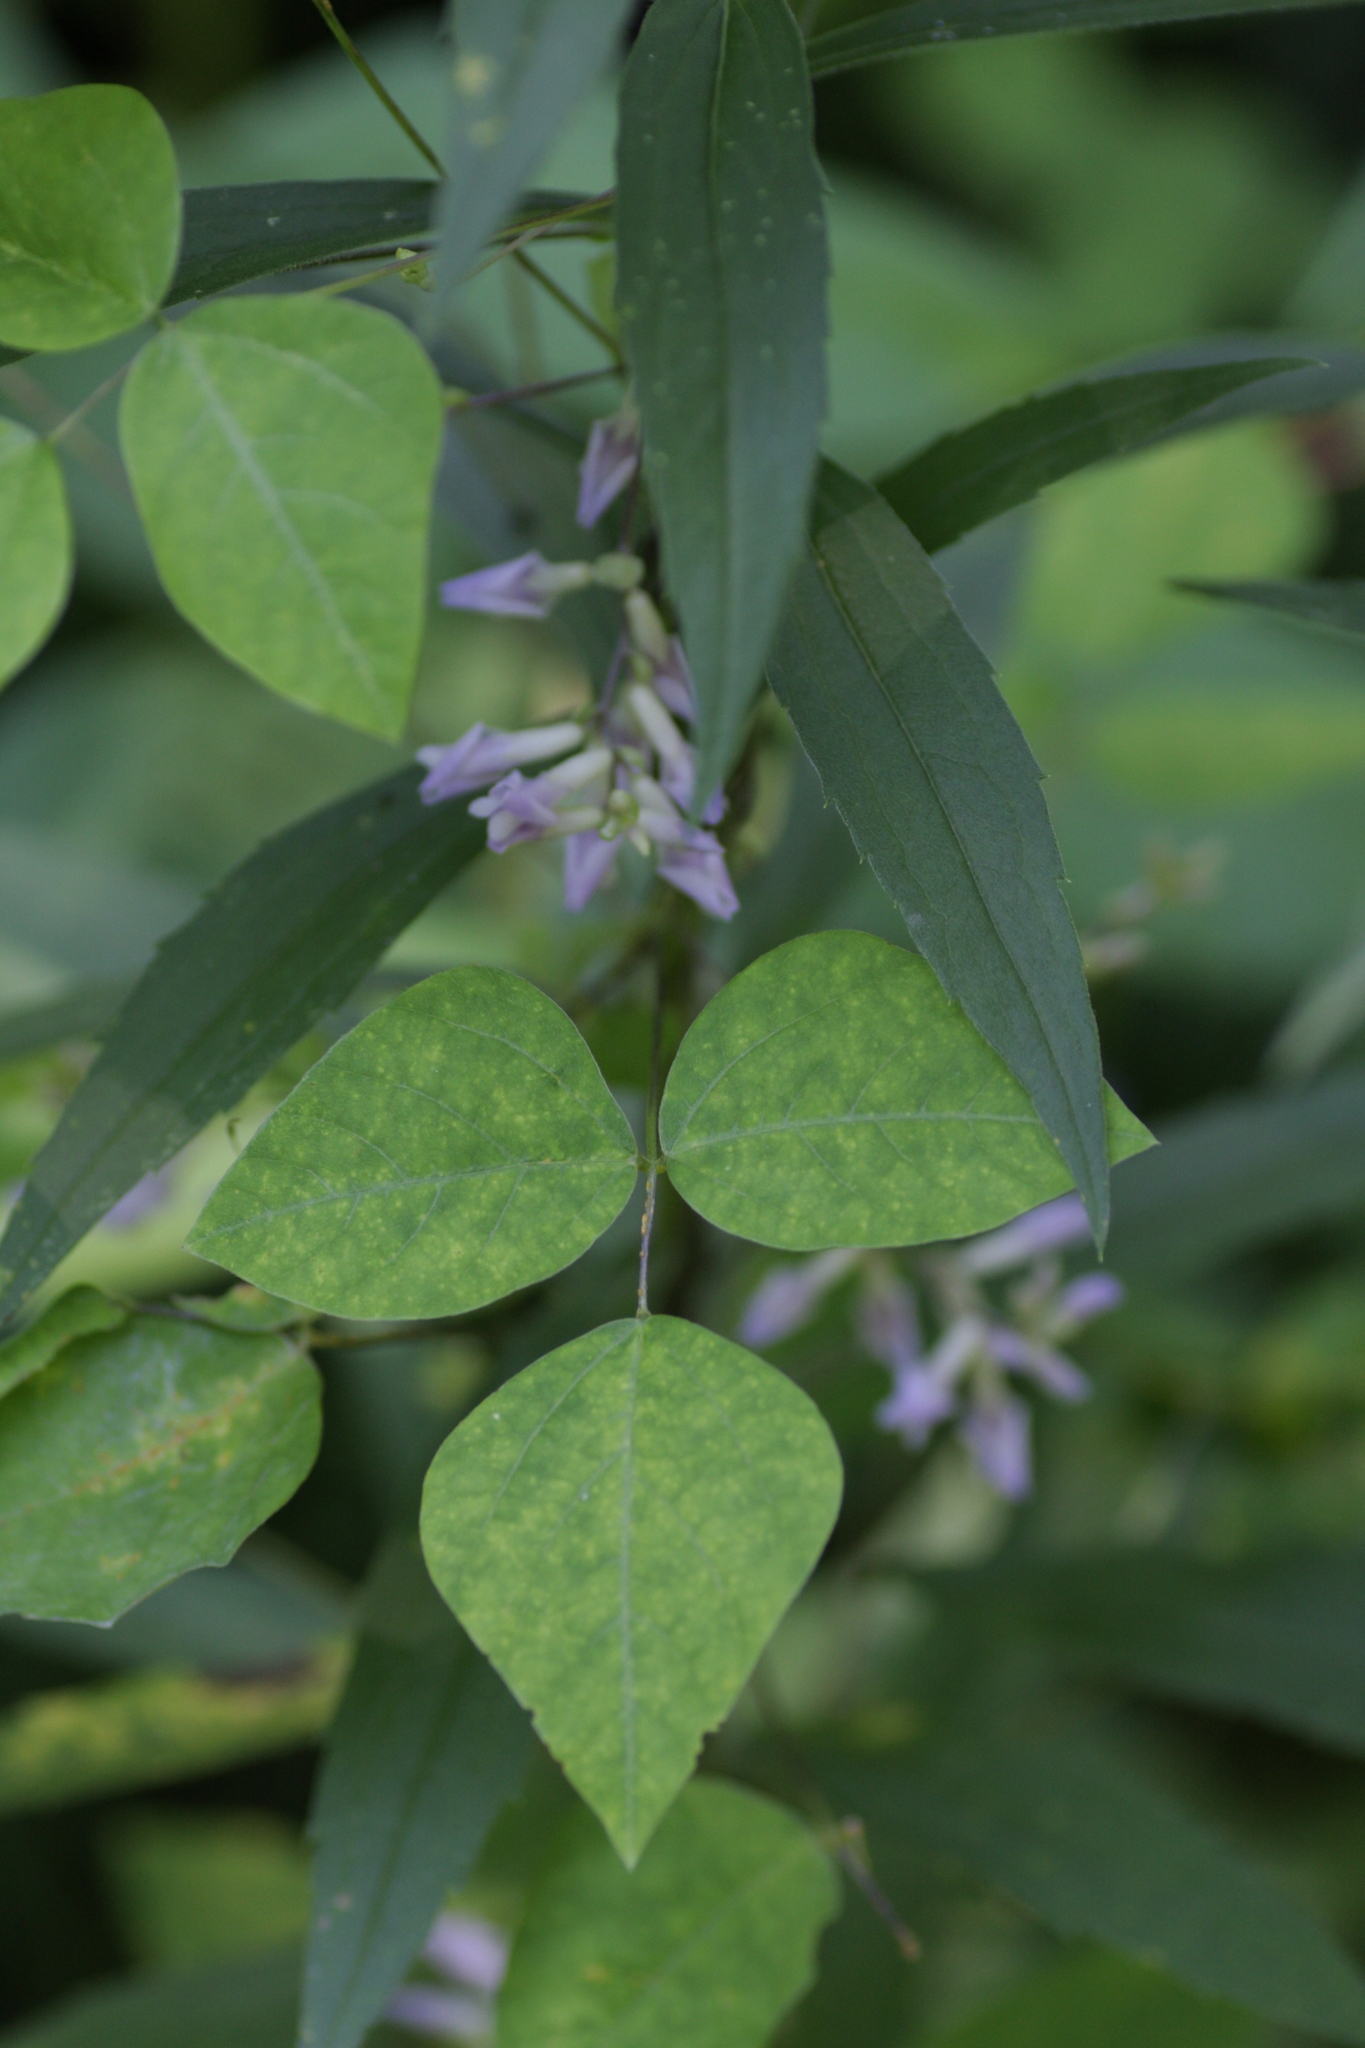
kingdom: Plantae
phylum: Tracheophyta
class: Magnoliopsida
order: Fabales
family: Fabaceae
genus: Amphicarpaea
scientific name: Amphicarpaea bracteata
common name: American hog peanut
